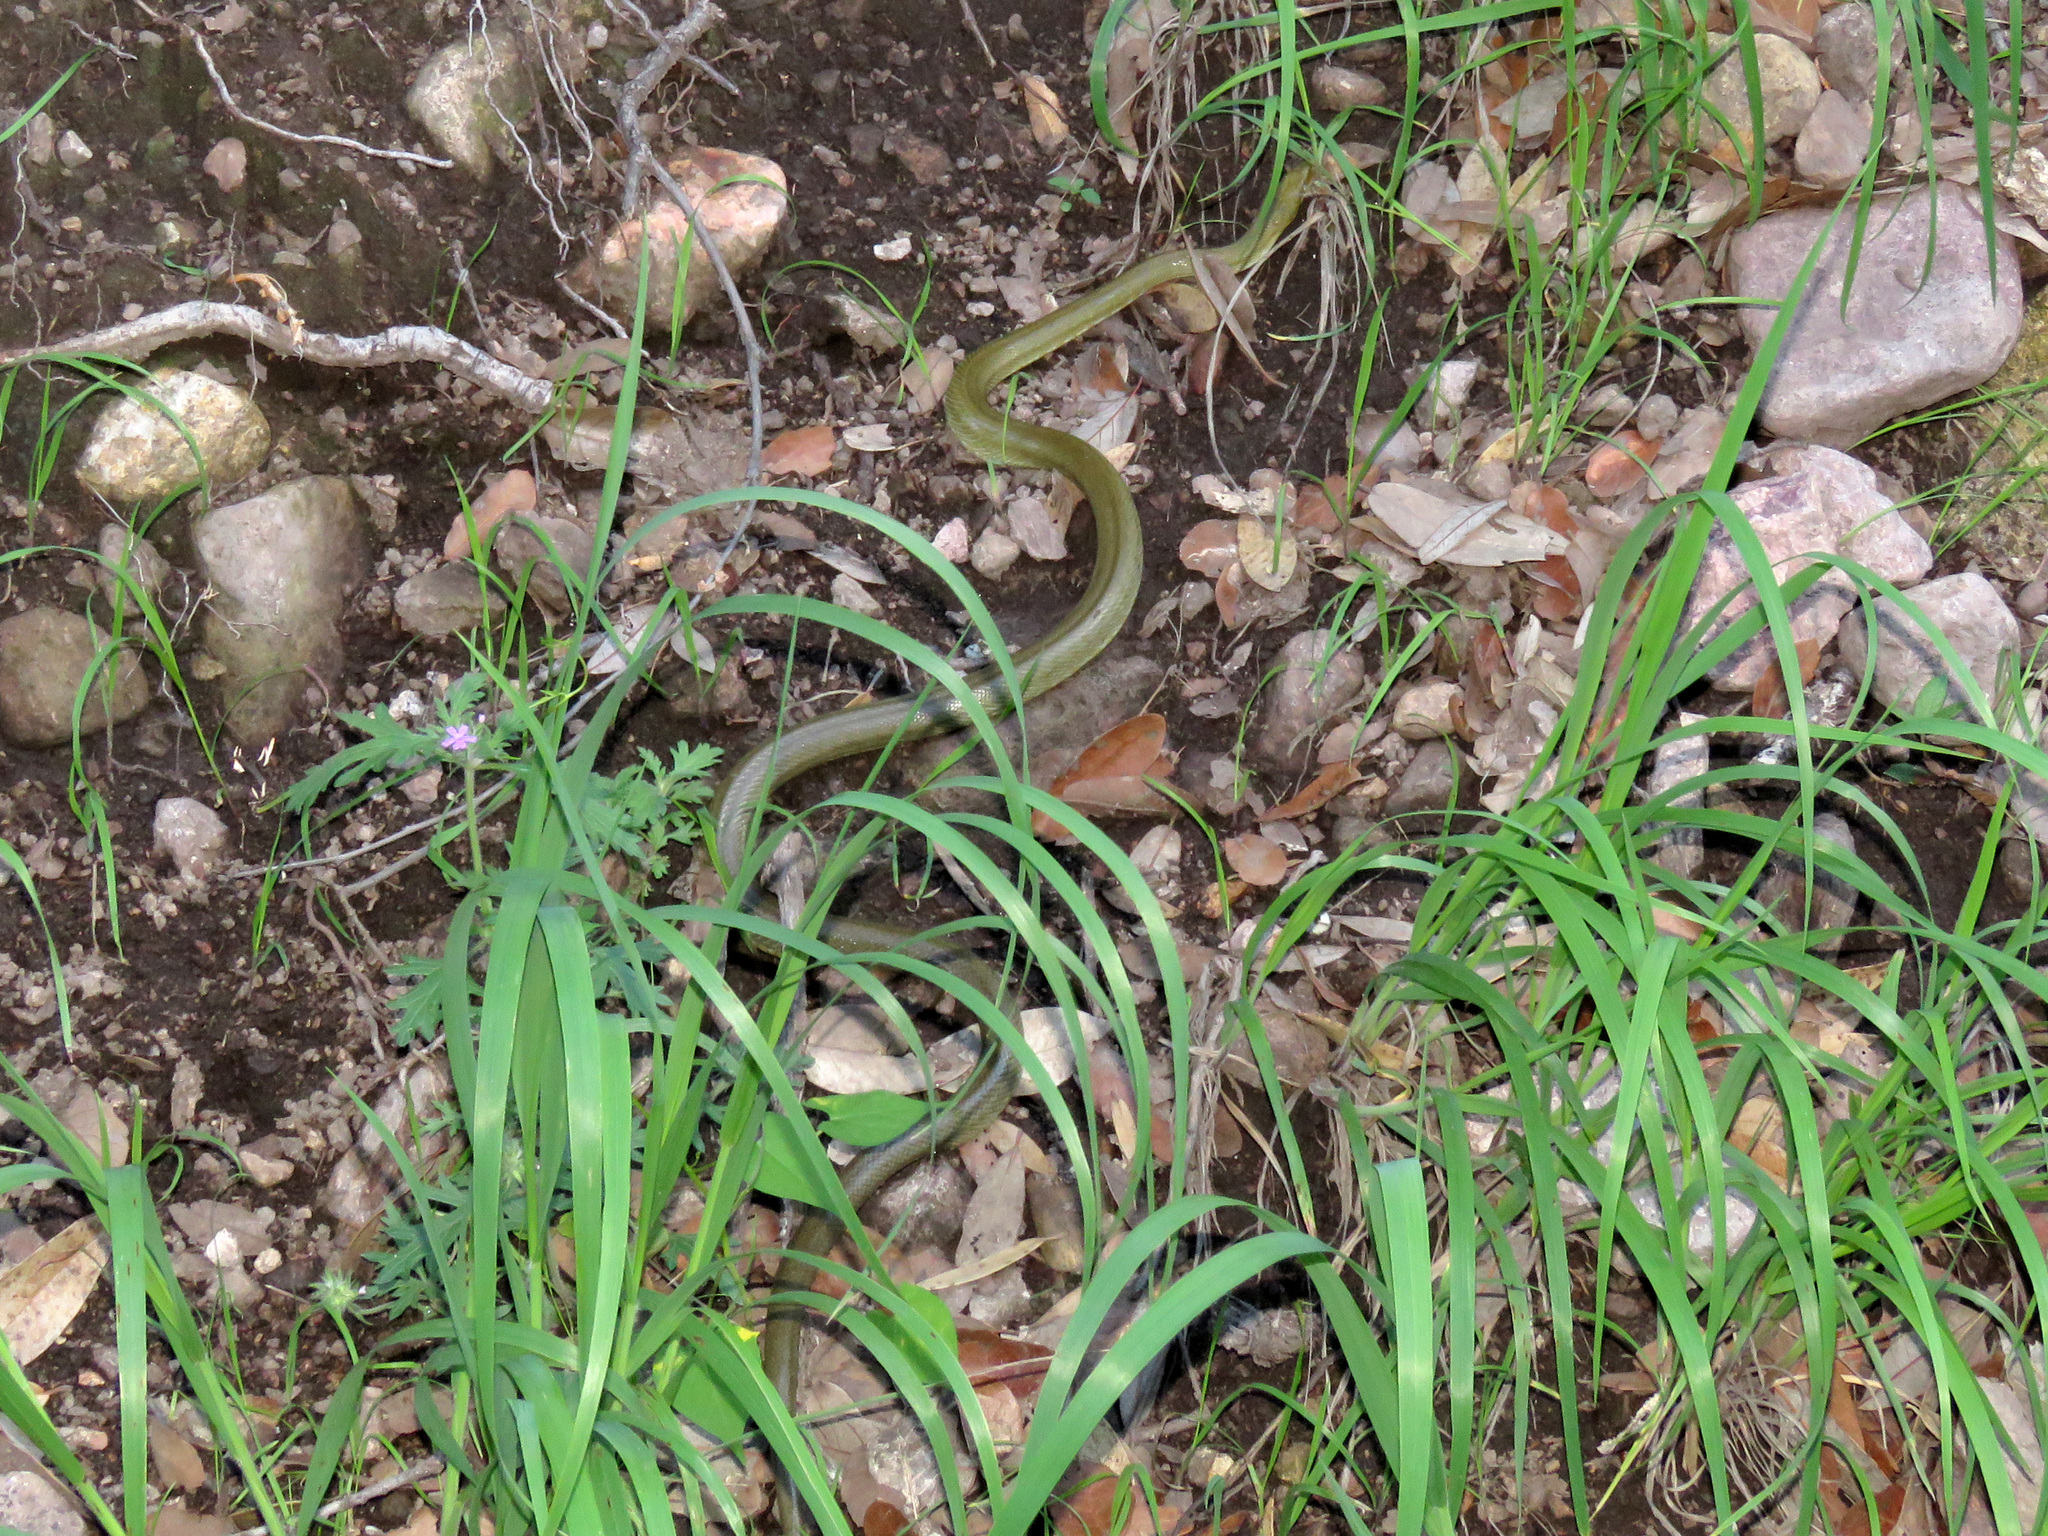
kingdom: Animalia
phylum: Chordata
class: Squamata
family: Colubridae
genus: Senticolis
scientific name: Senticolis triaspis
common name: Green rat snake
